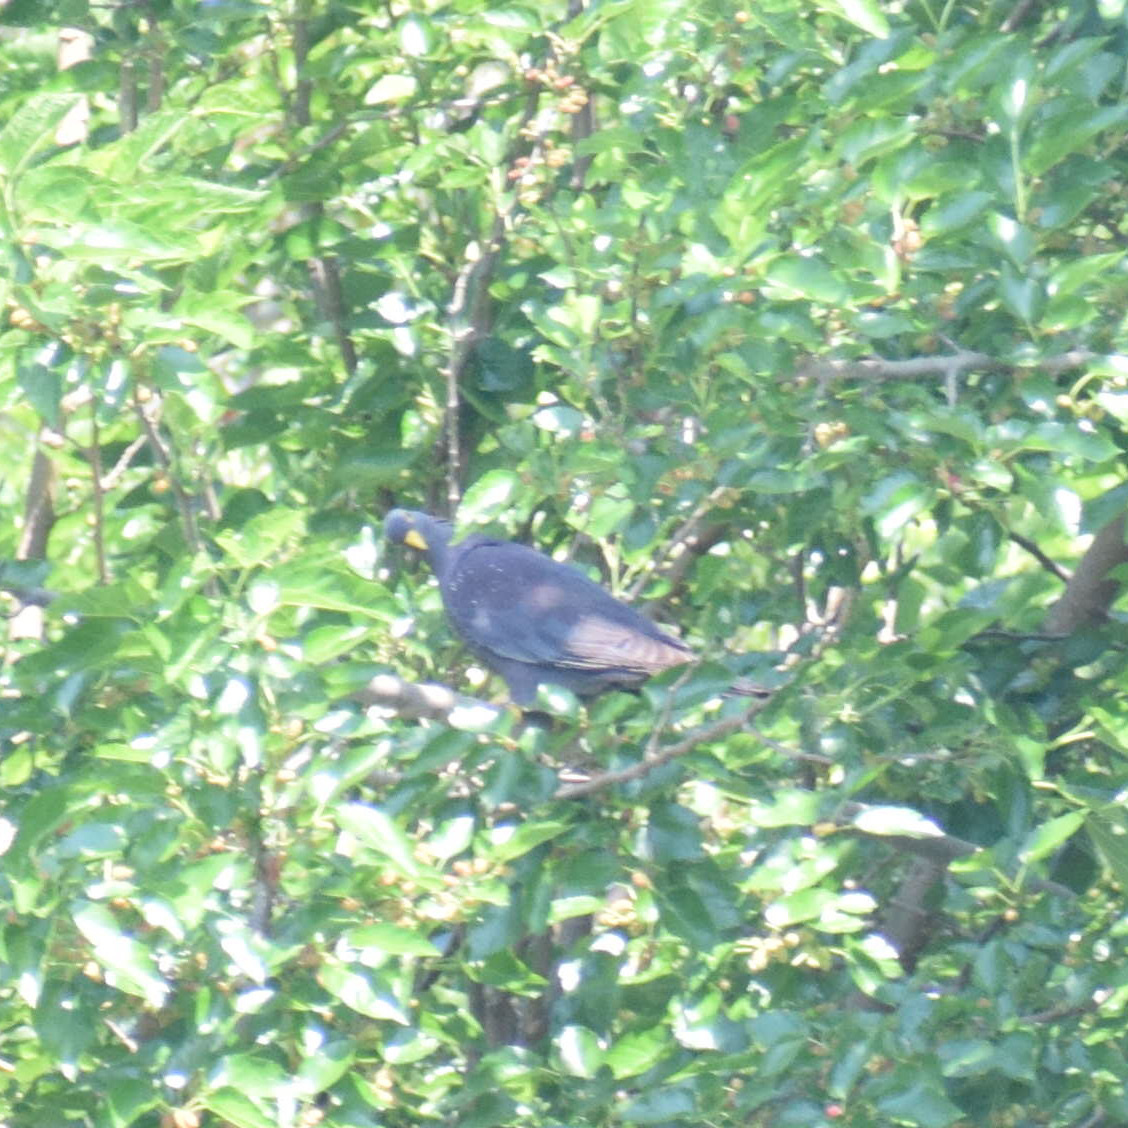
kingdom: Animalia
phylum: Chordata
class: Aves
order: Columbiformes
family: Columbidae
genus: Columba
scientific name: Columba arquatrix
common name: African olive pigeon
